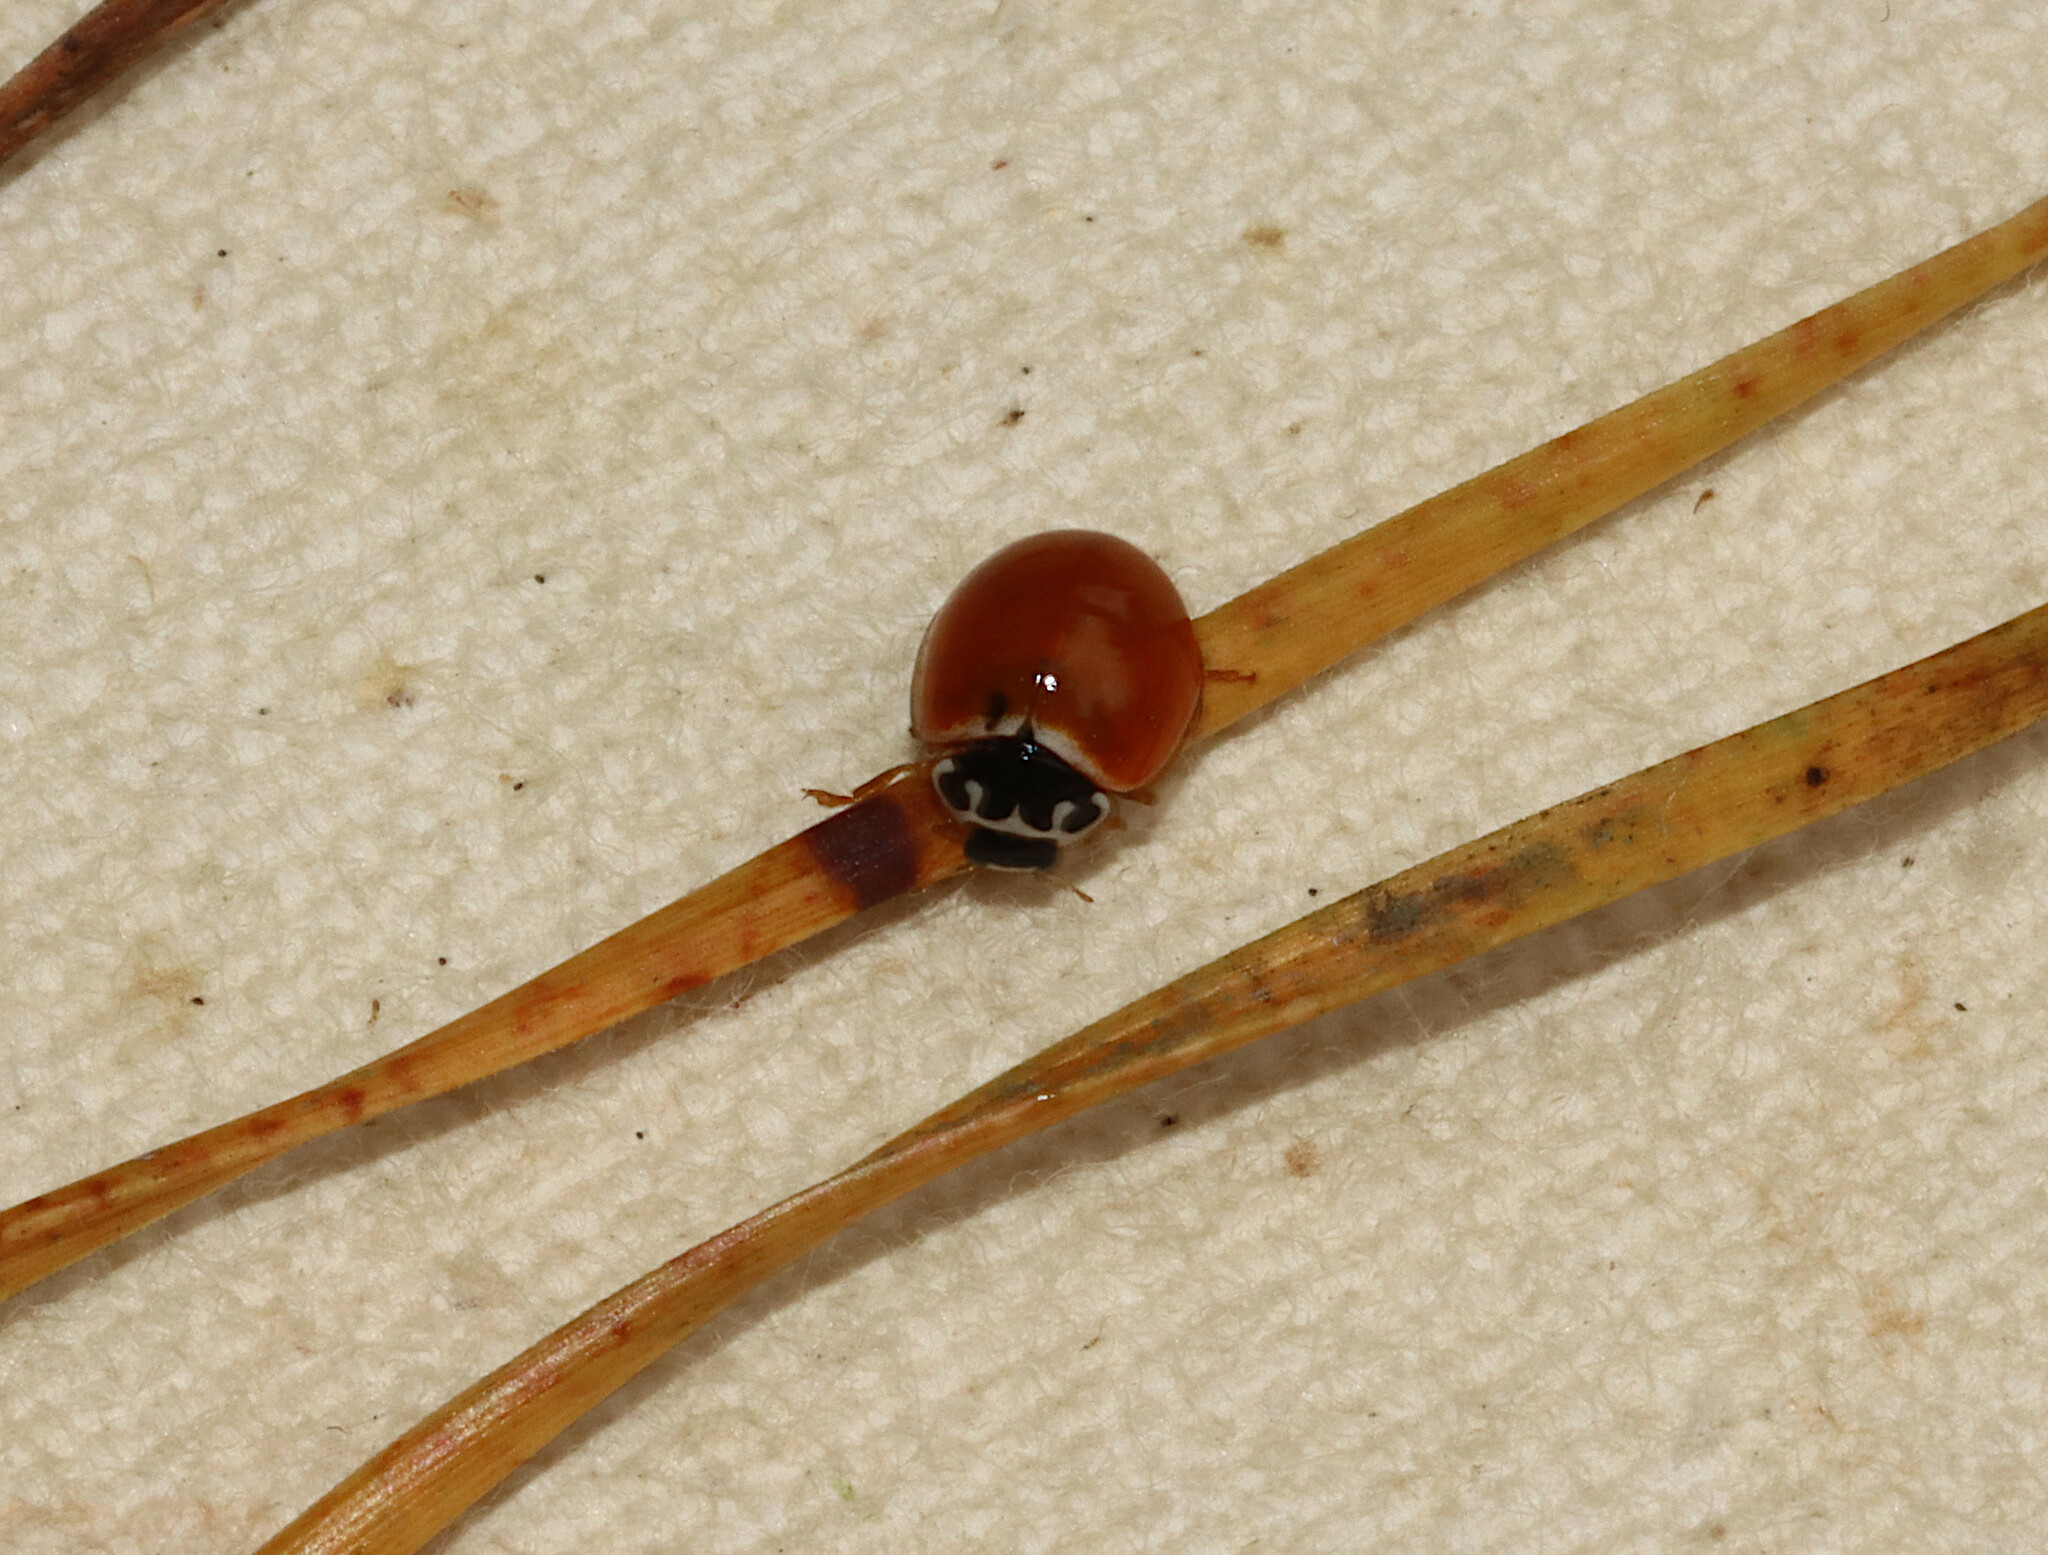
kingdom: Animalia
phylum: Arthropoda
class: Insecta
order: Coleoptera
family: Coccinellidae
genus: Cycloneda
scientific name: Cycloneda munda
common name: Polished lady beetle
